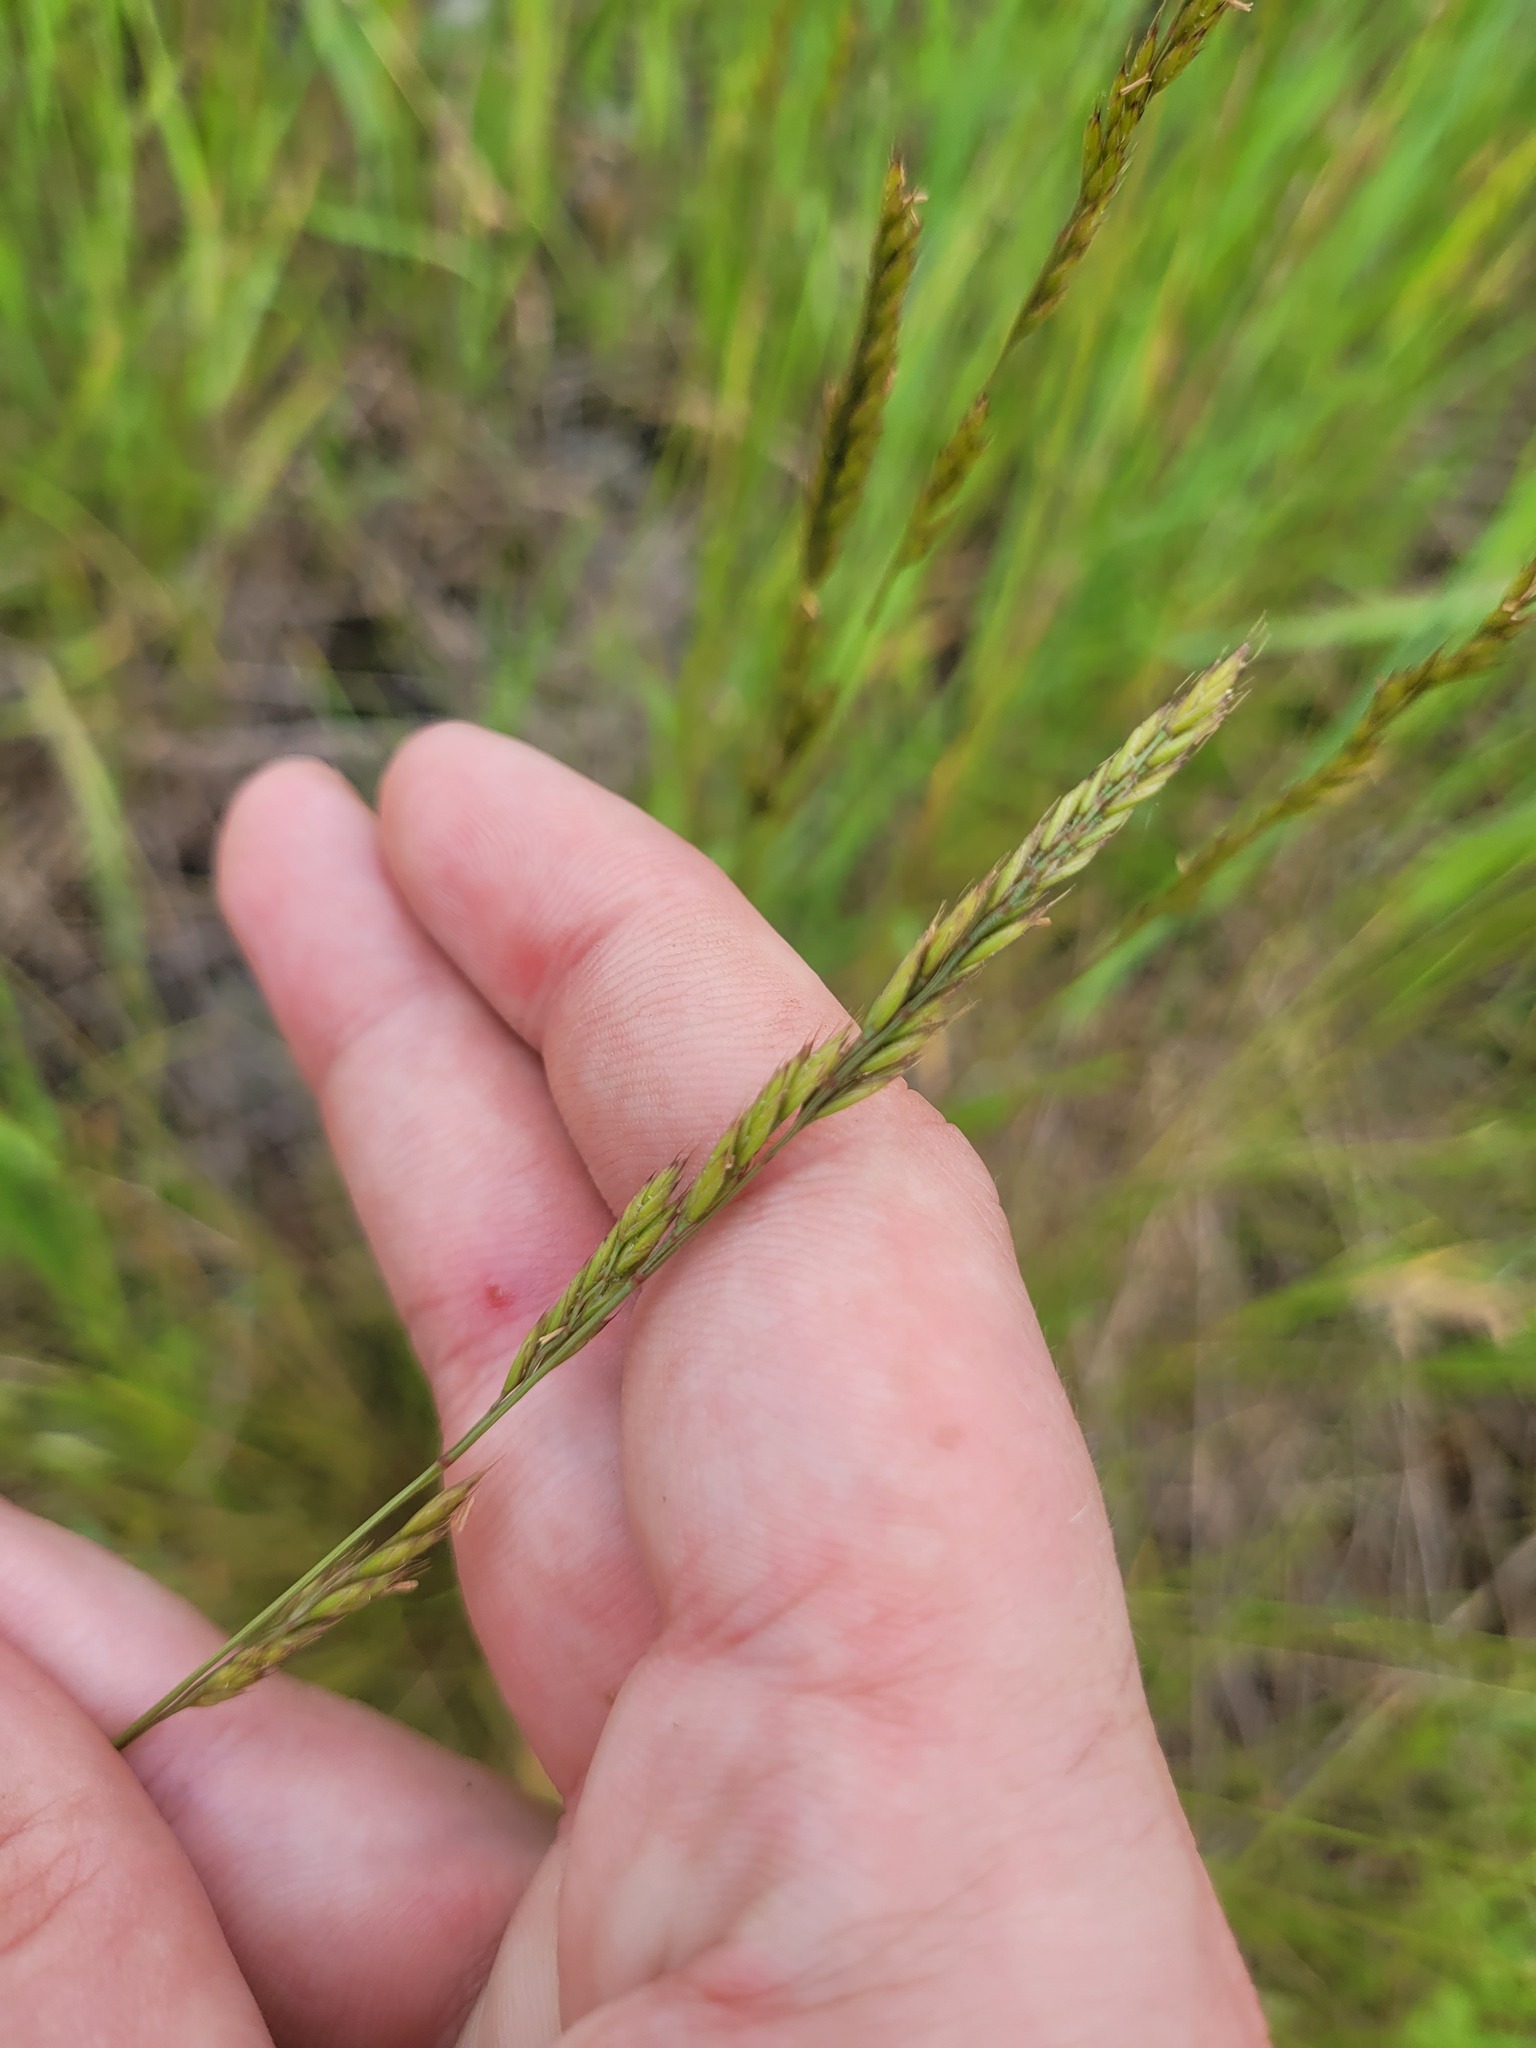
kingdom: Plantae
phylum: Tracheophyta
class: Liliopsida
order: Poales
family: Poaceae
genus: Festuca
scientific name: Festuca rupicola
